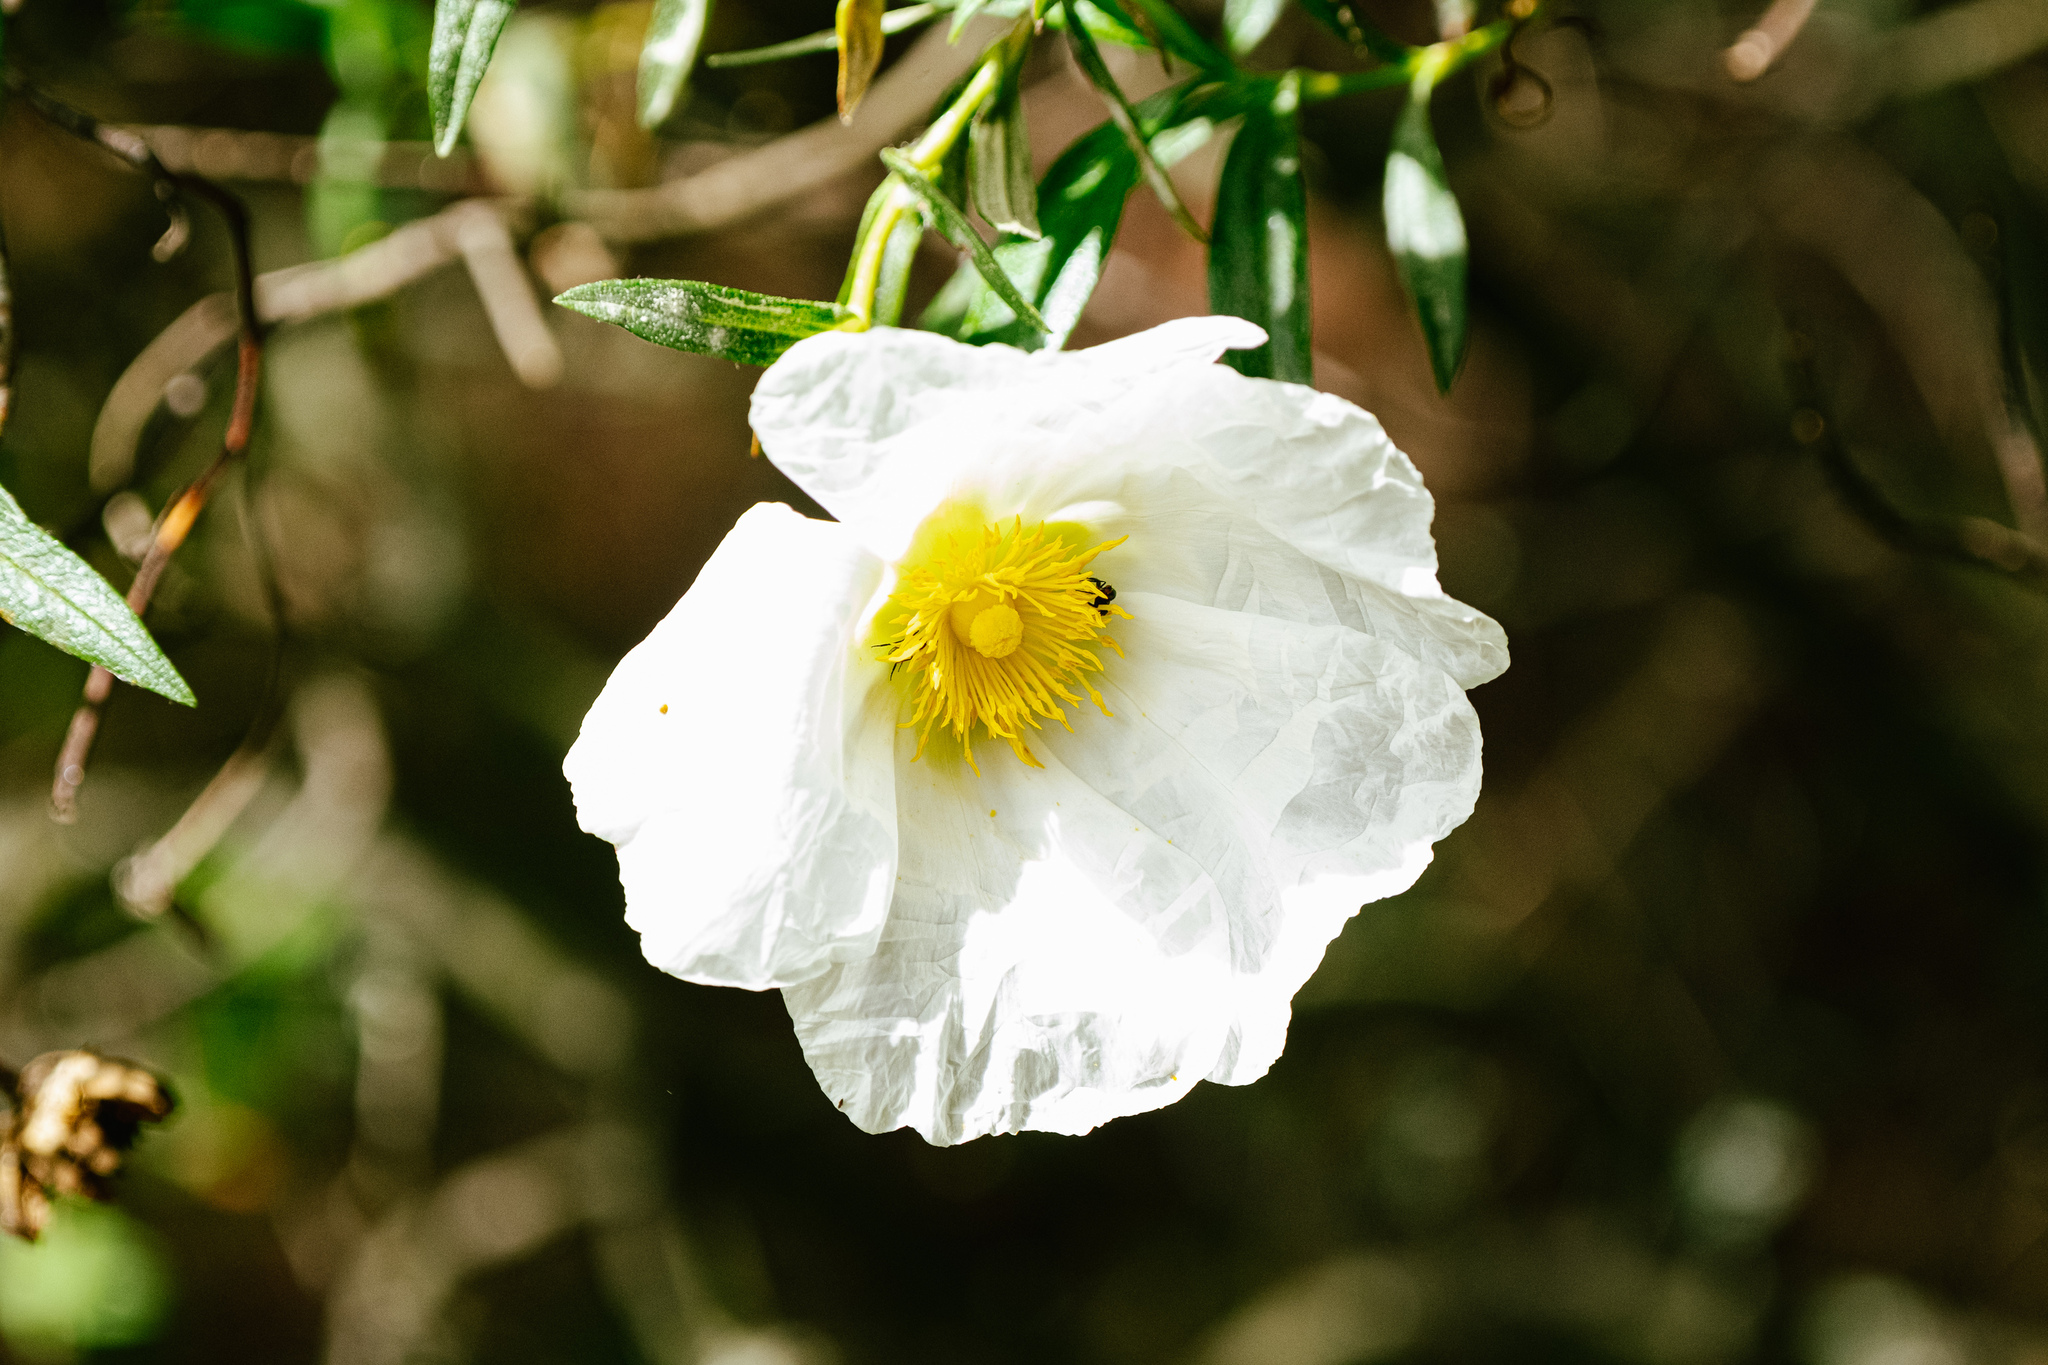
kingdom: Plantae
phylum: Tracheophyta
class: Magnoliopsida
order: Malvales
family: Cistaceae
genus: Cistus
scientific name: Cistus ladanifer
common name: Common gum cistus
